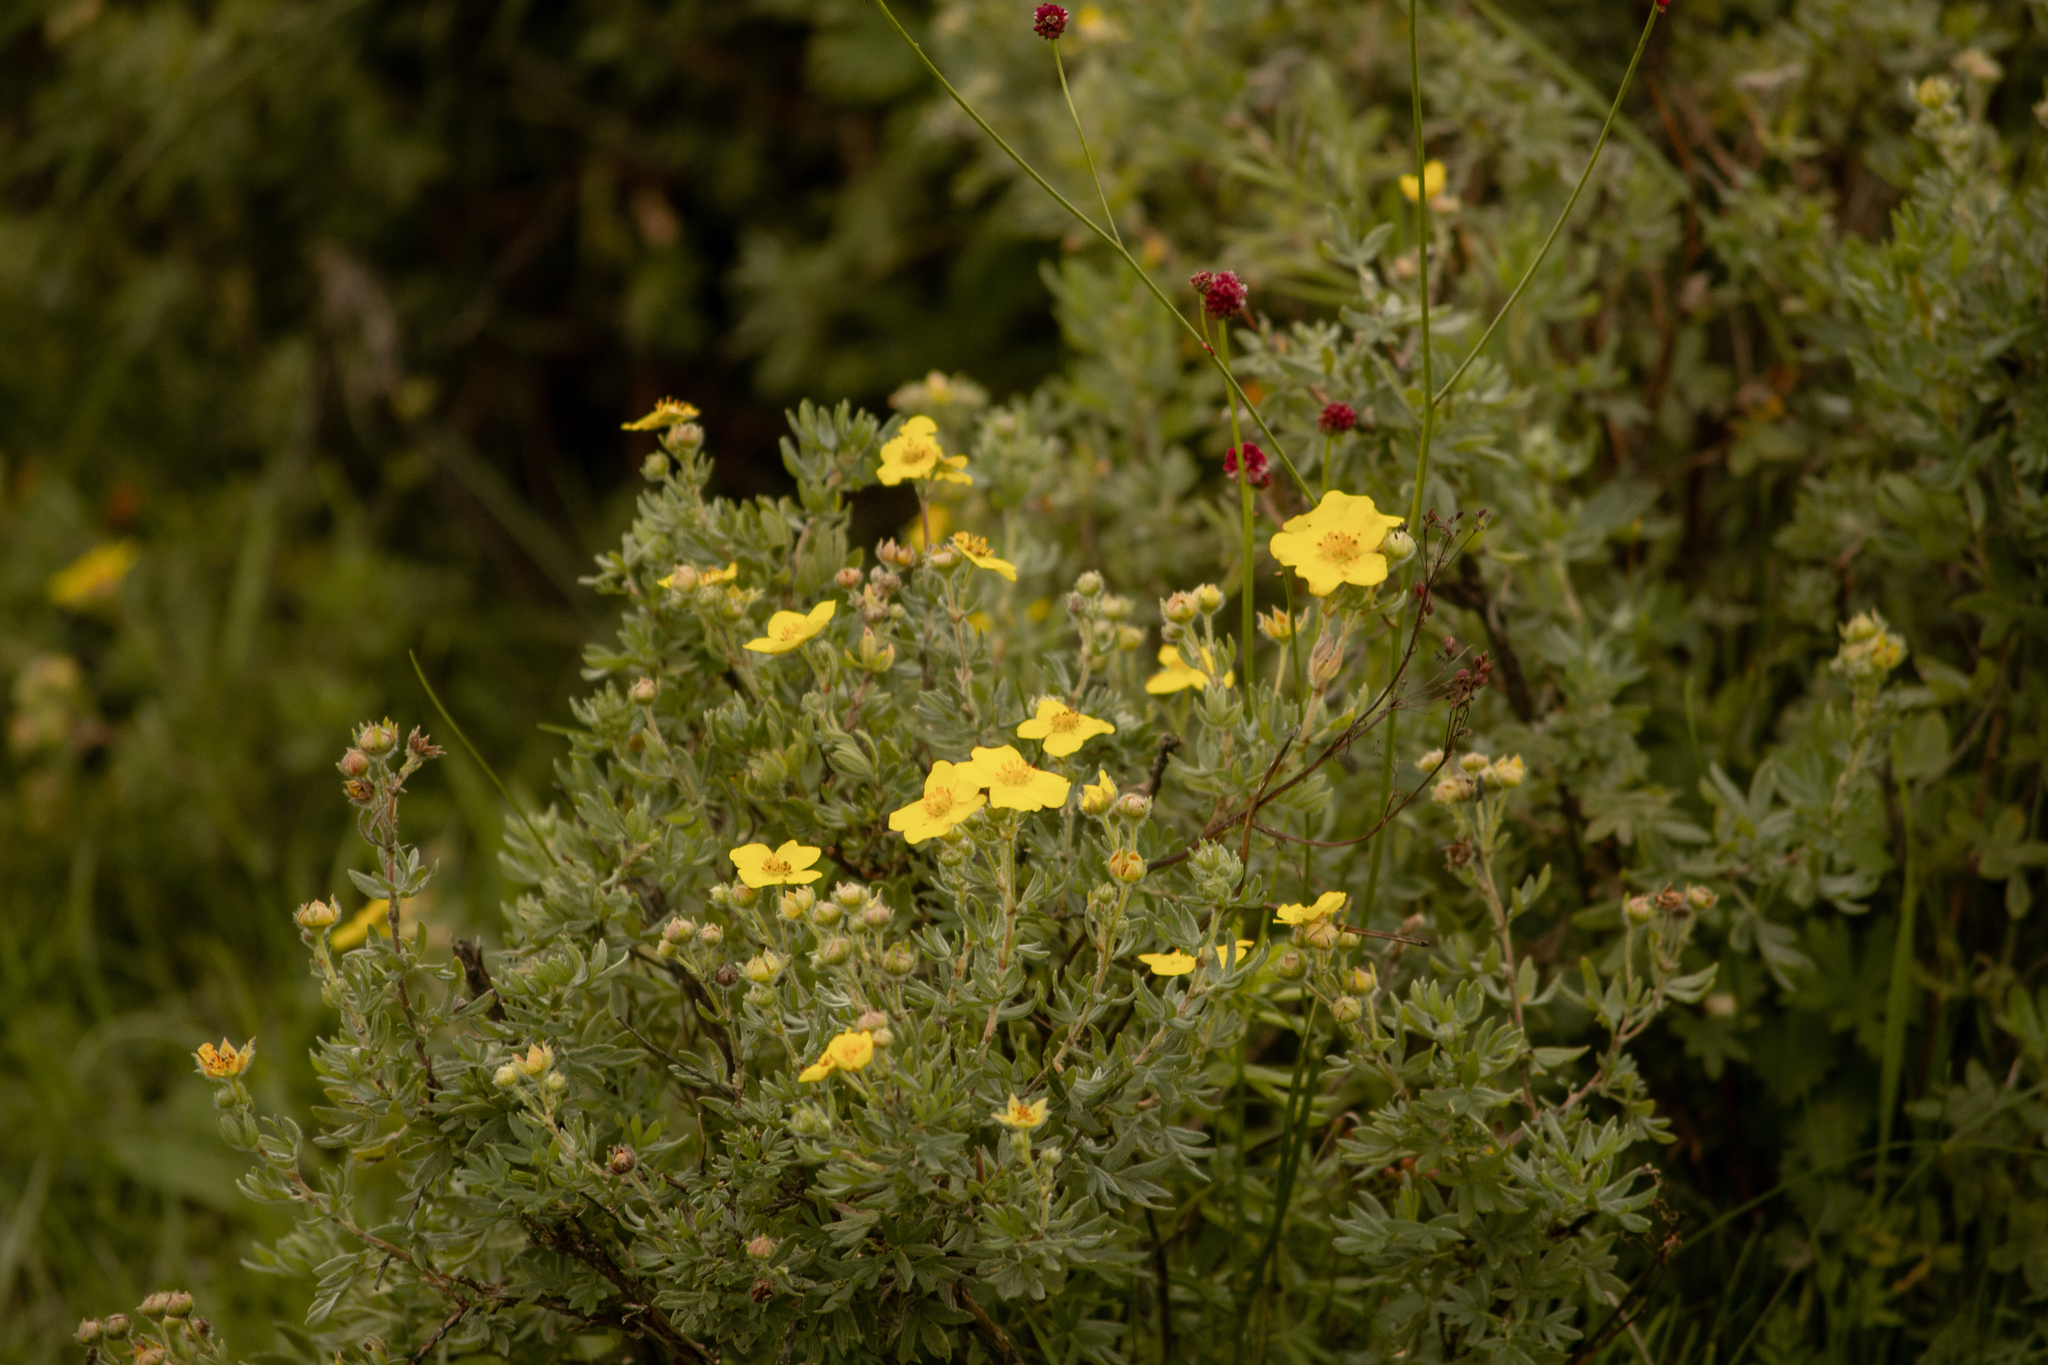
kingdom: Plantae
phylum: Tracheophyta
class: Magnoliopsida
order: Rosales
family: Rosaceae
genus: Dasiphora
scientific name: Dasiphora fruticosa
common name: Shrubby cinquefoil
